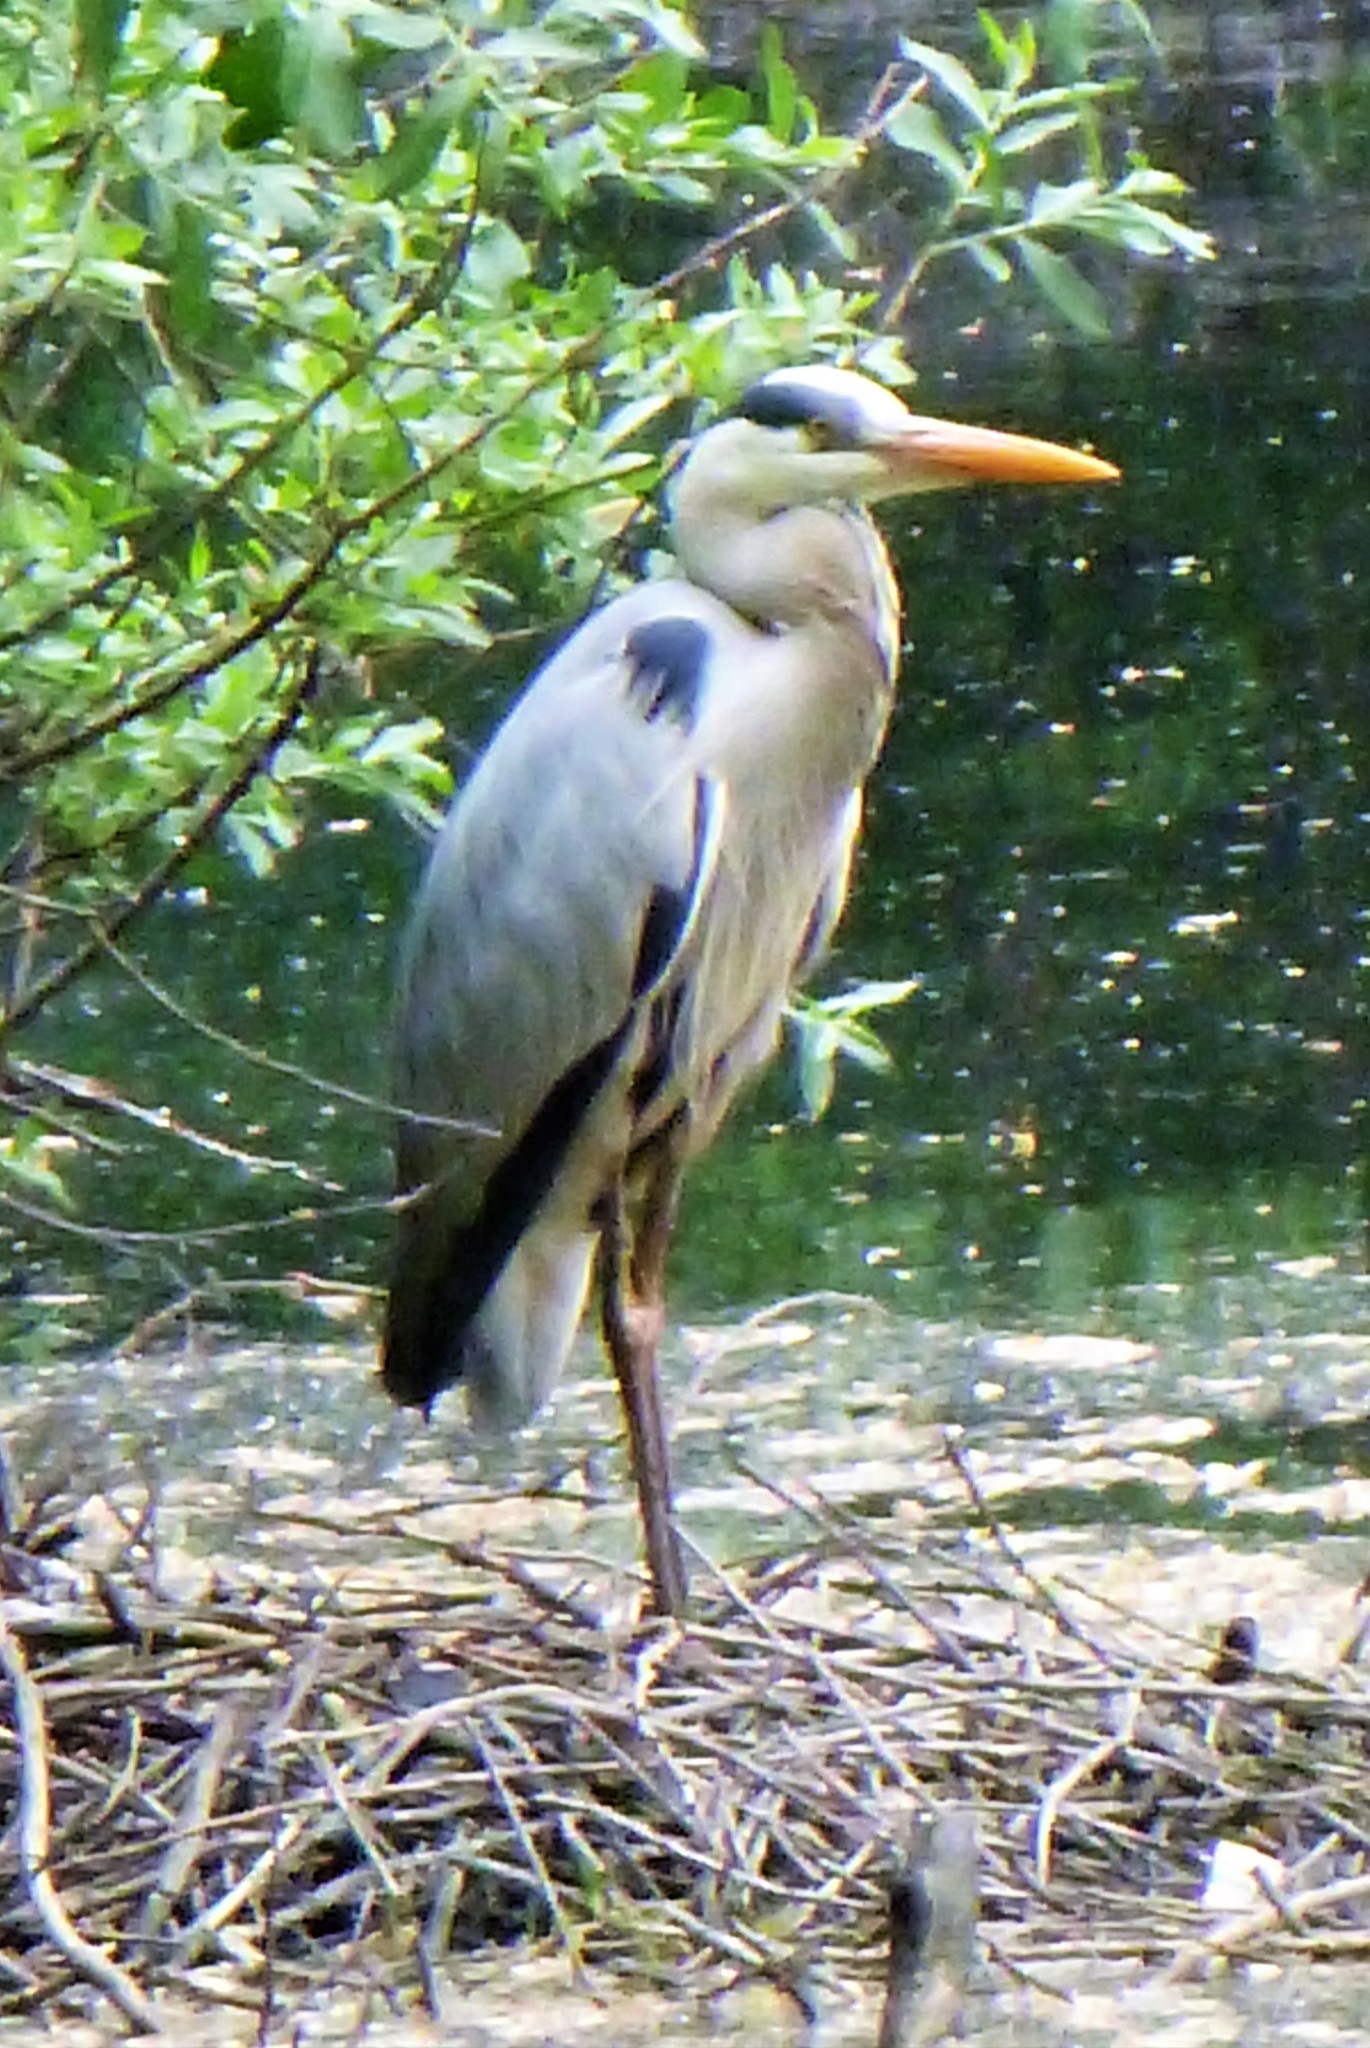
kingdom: Animalia
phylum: Chordata
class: Aves
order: Pelecaniformes
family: Ardeidae
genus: Ardea
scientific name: Ardea cinerea
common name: Grey heron
